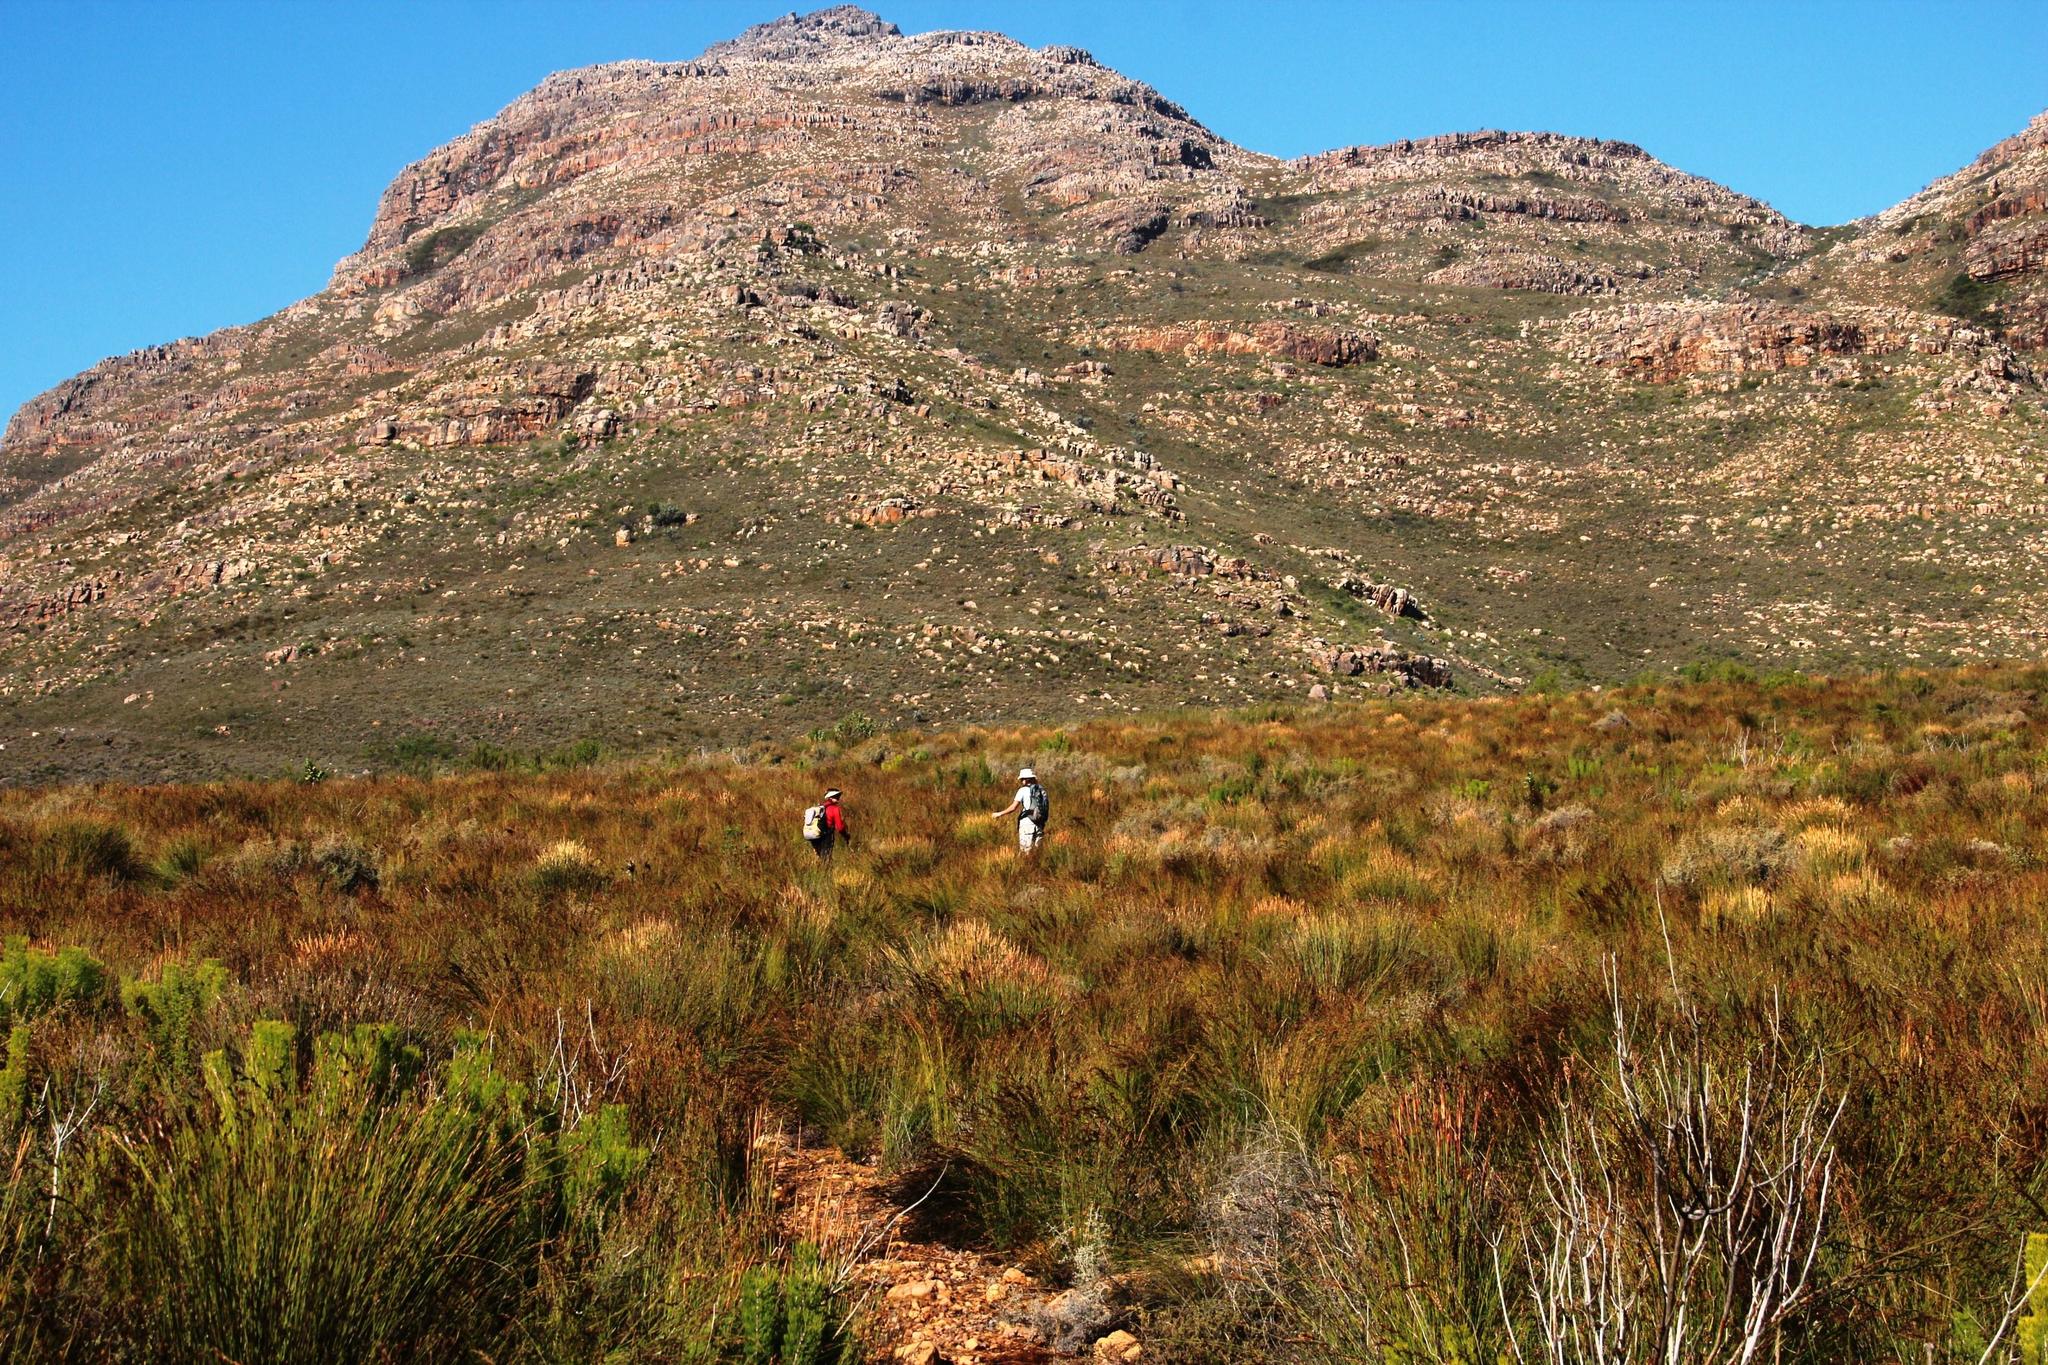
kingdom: Plantae
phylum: Tracheophyta
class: Liliopsida
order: Poales
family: Restionaceae
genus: Restio
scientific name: Restio sieberi
